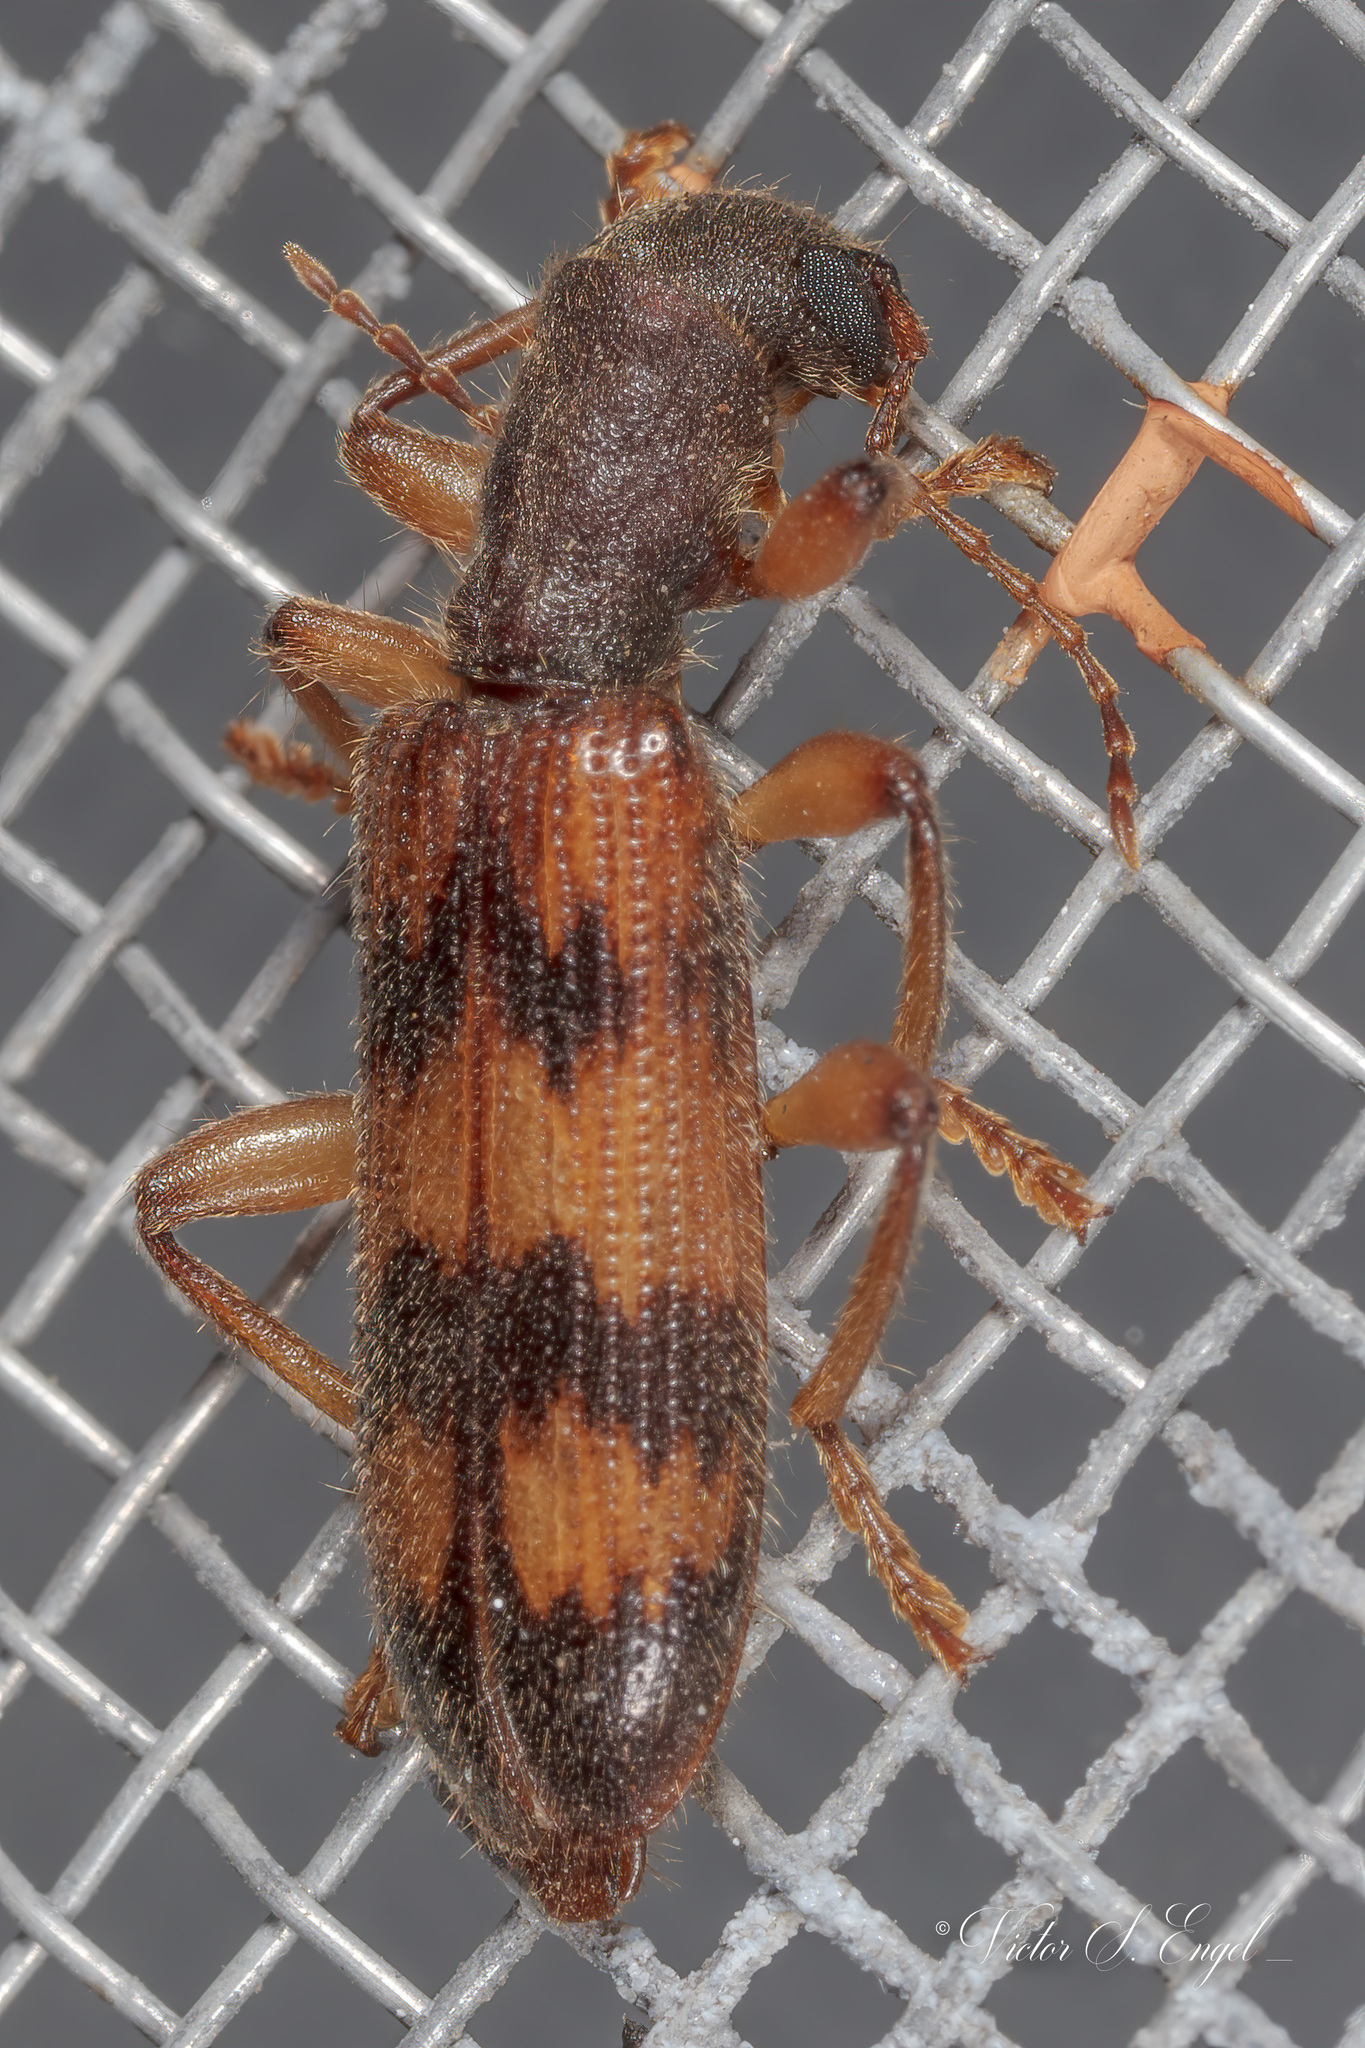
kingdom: Animalia
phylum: Arthropoda
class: Insecta
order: Coleoptera
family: Cleridae
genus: Cymatodera
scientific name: Cymatodera undulata
